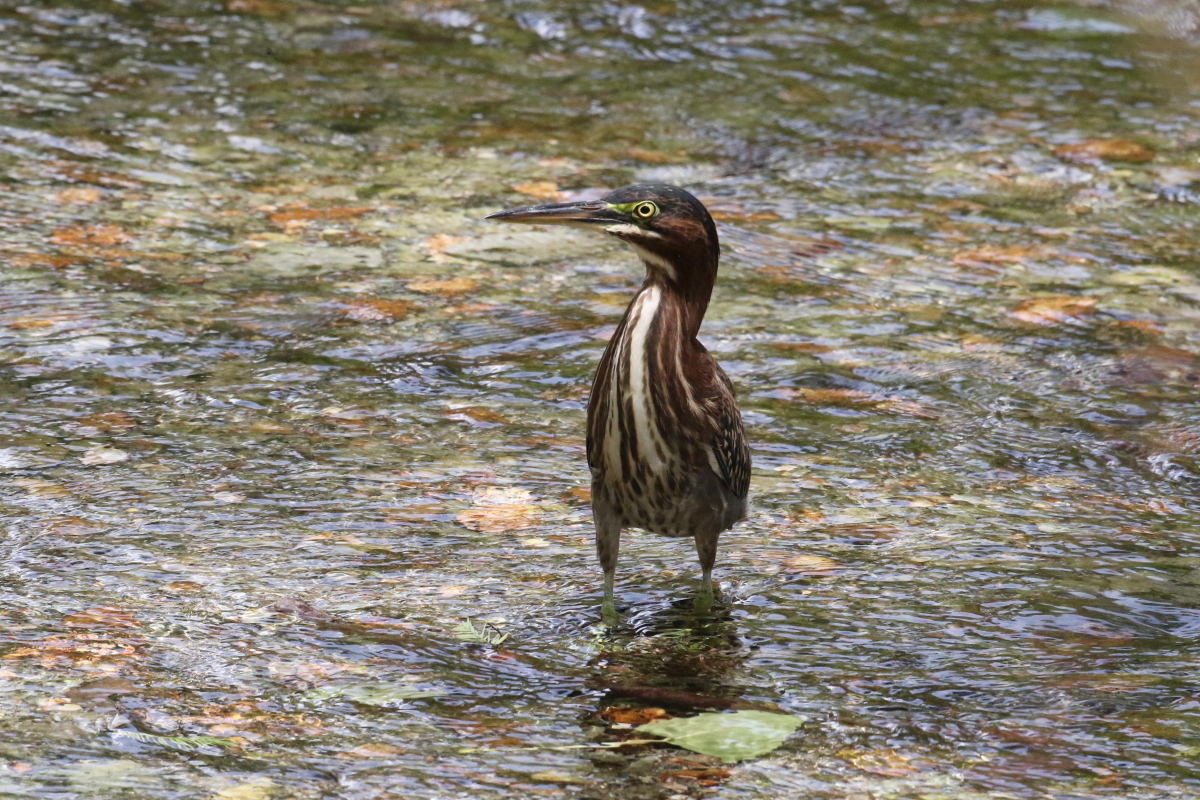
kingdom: Animalia
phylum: Chordata
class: Aves
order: Pelecaniformes
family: Ardeidae
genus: Butorides
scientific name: Butorides virescens
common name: Green heron
